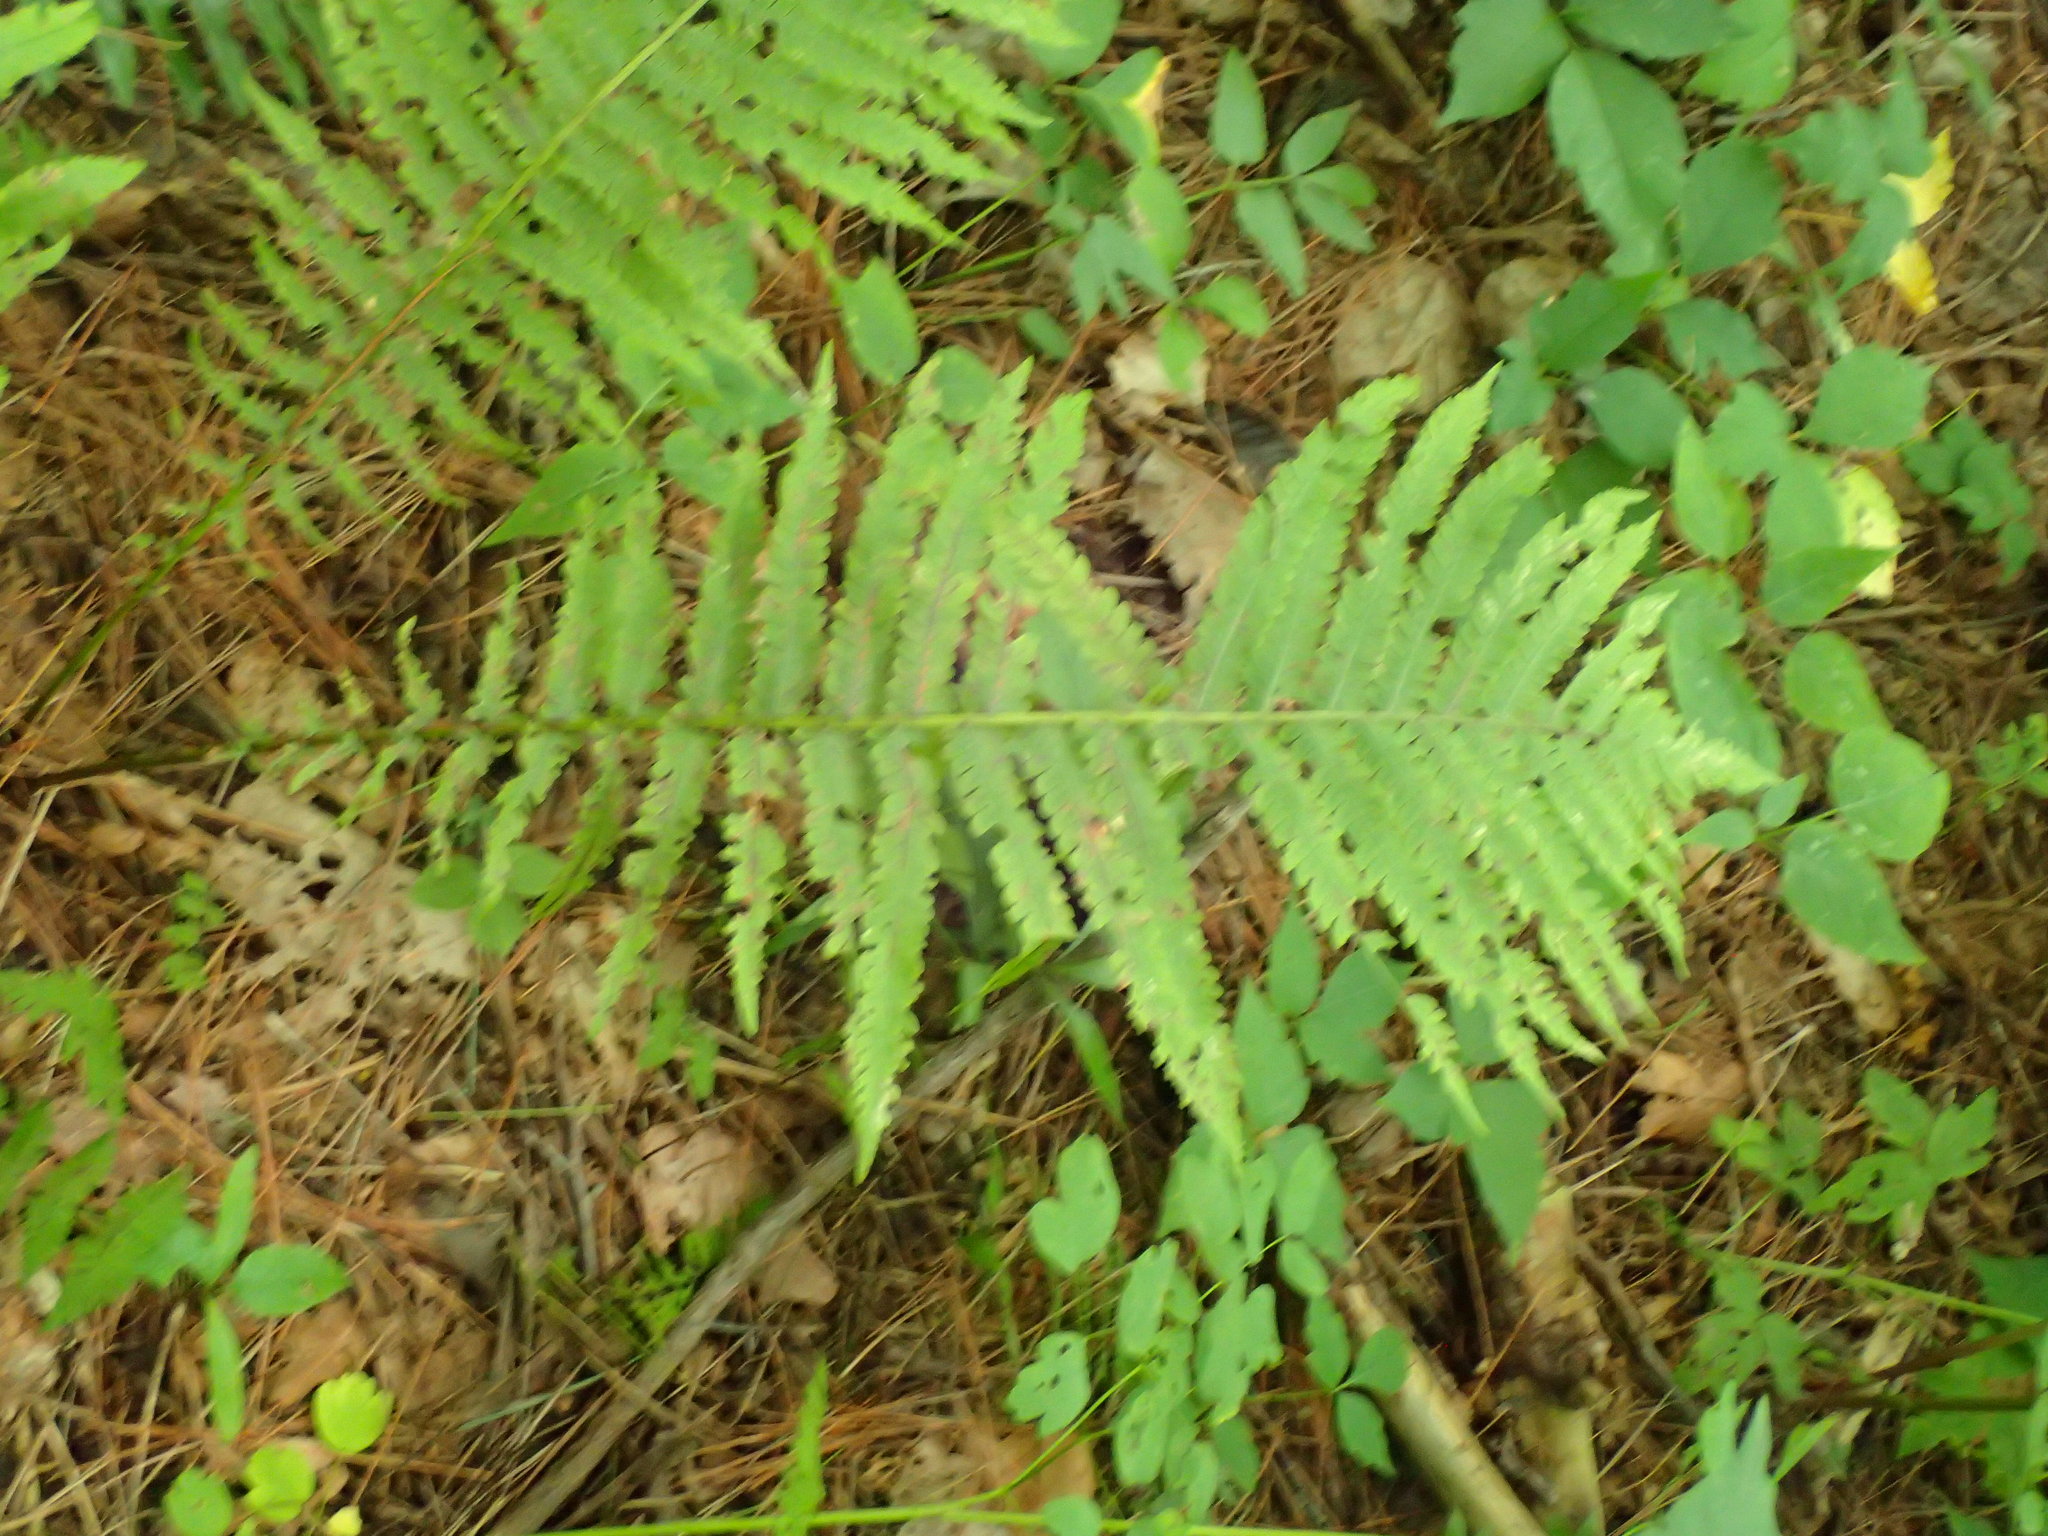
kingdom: Plantae
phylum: Tracheophyta
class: Polypodiopsida
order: Polypodiales
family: Onocleaceae
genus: Matteuccia
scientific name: Matteuccia struthiopteris
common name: Ostrich fern
